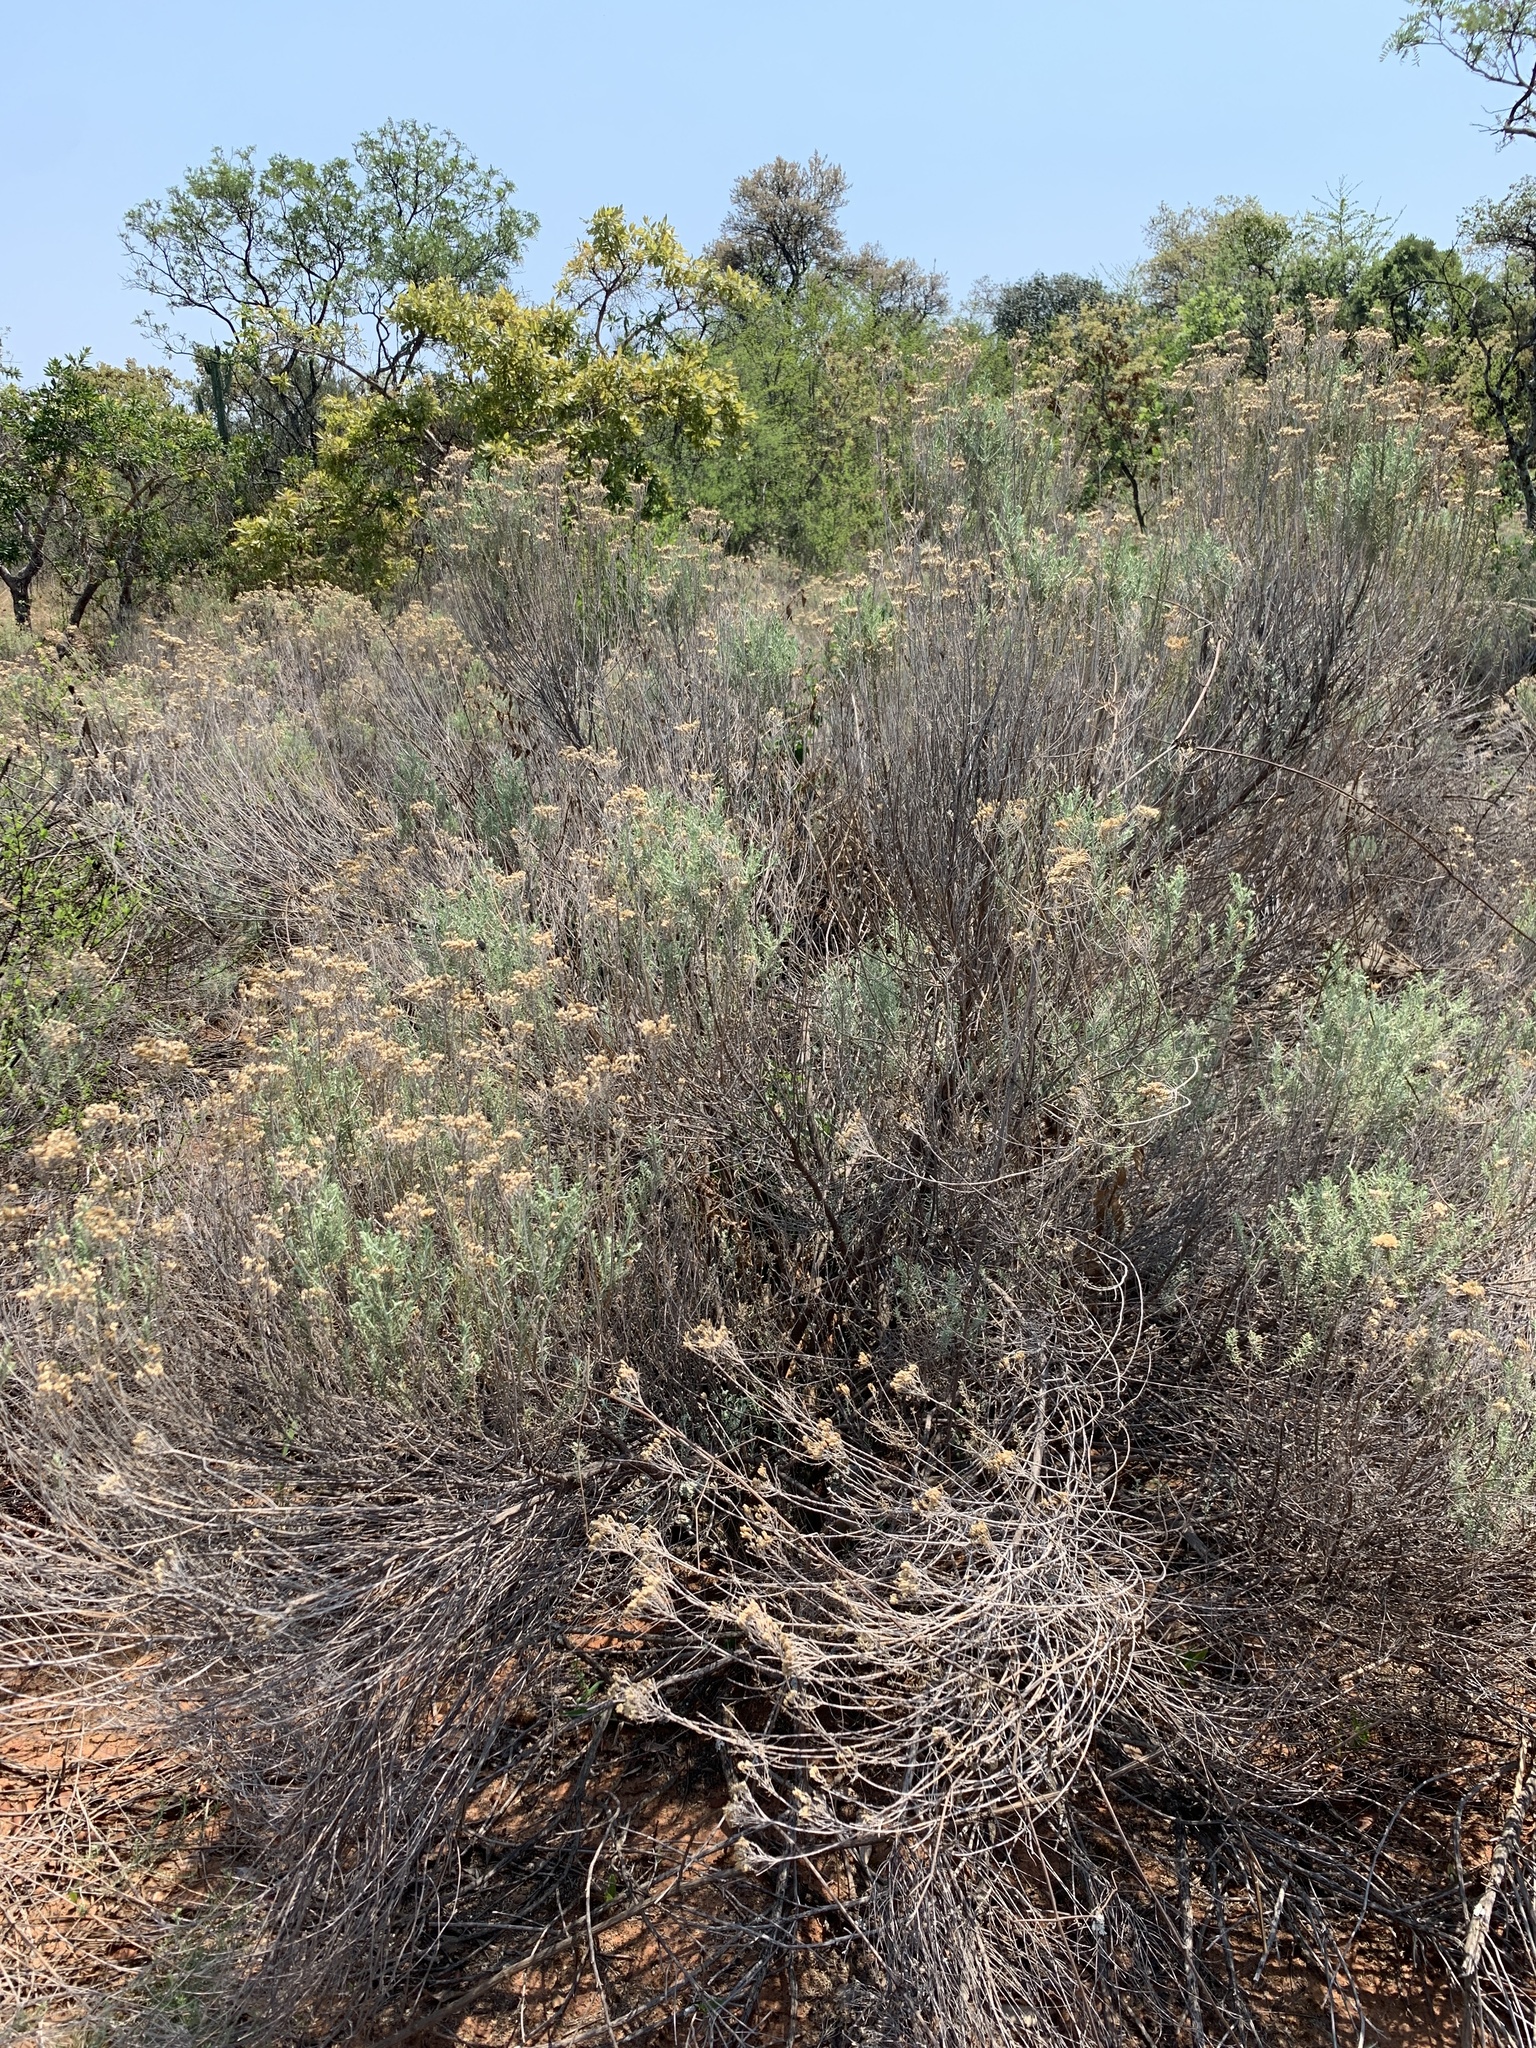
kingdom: Plantae
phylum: Tracheophyta
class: Magnoliopsida
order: Asterales
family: Asteraceae
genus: Helichrysum
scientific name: Helichrysum kraussii
